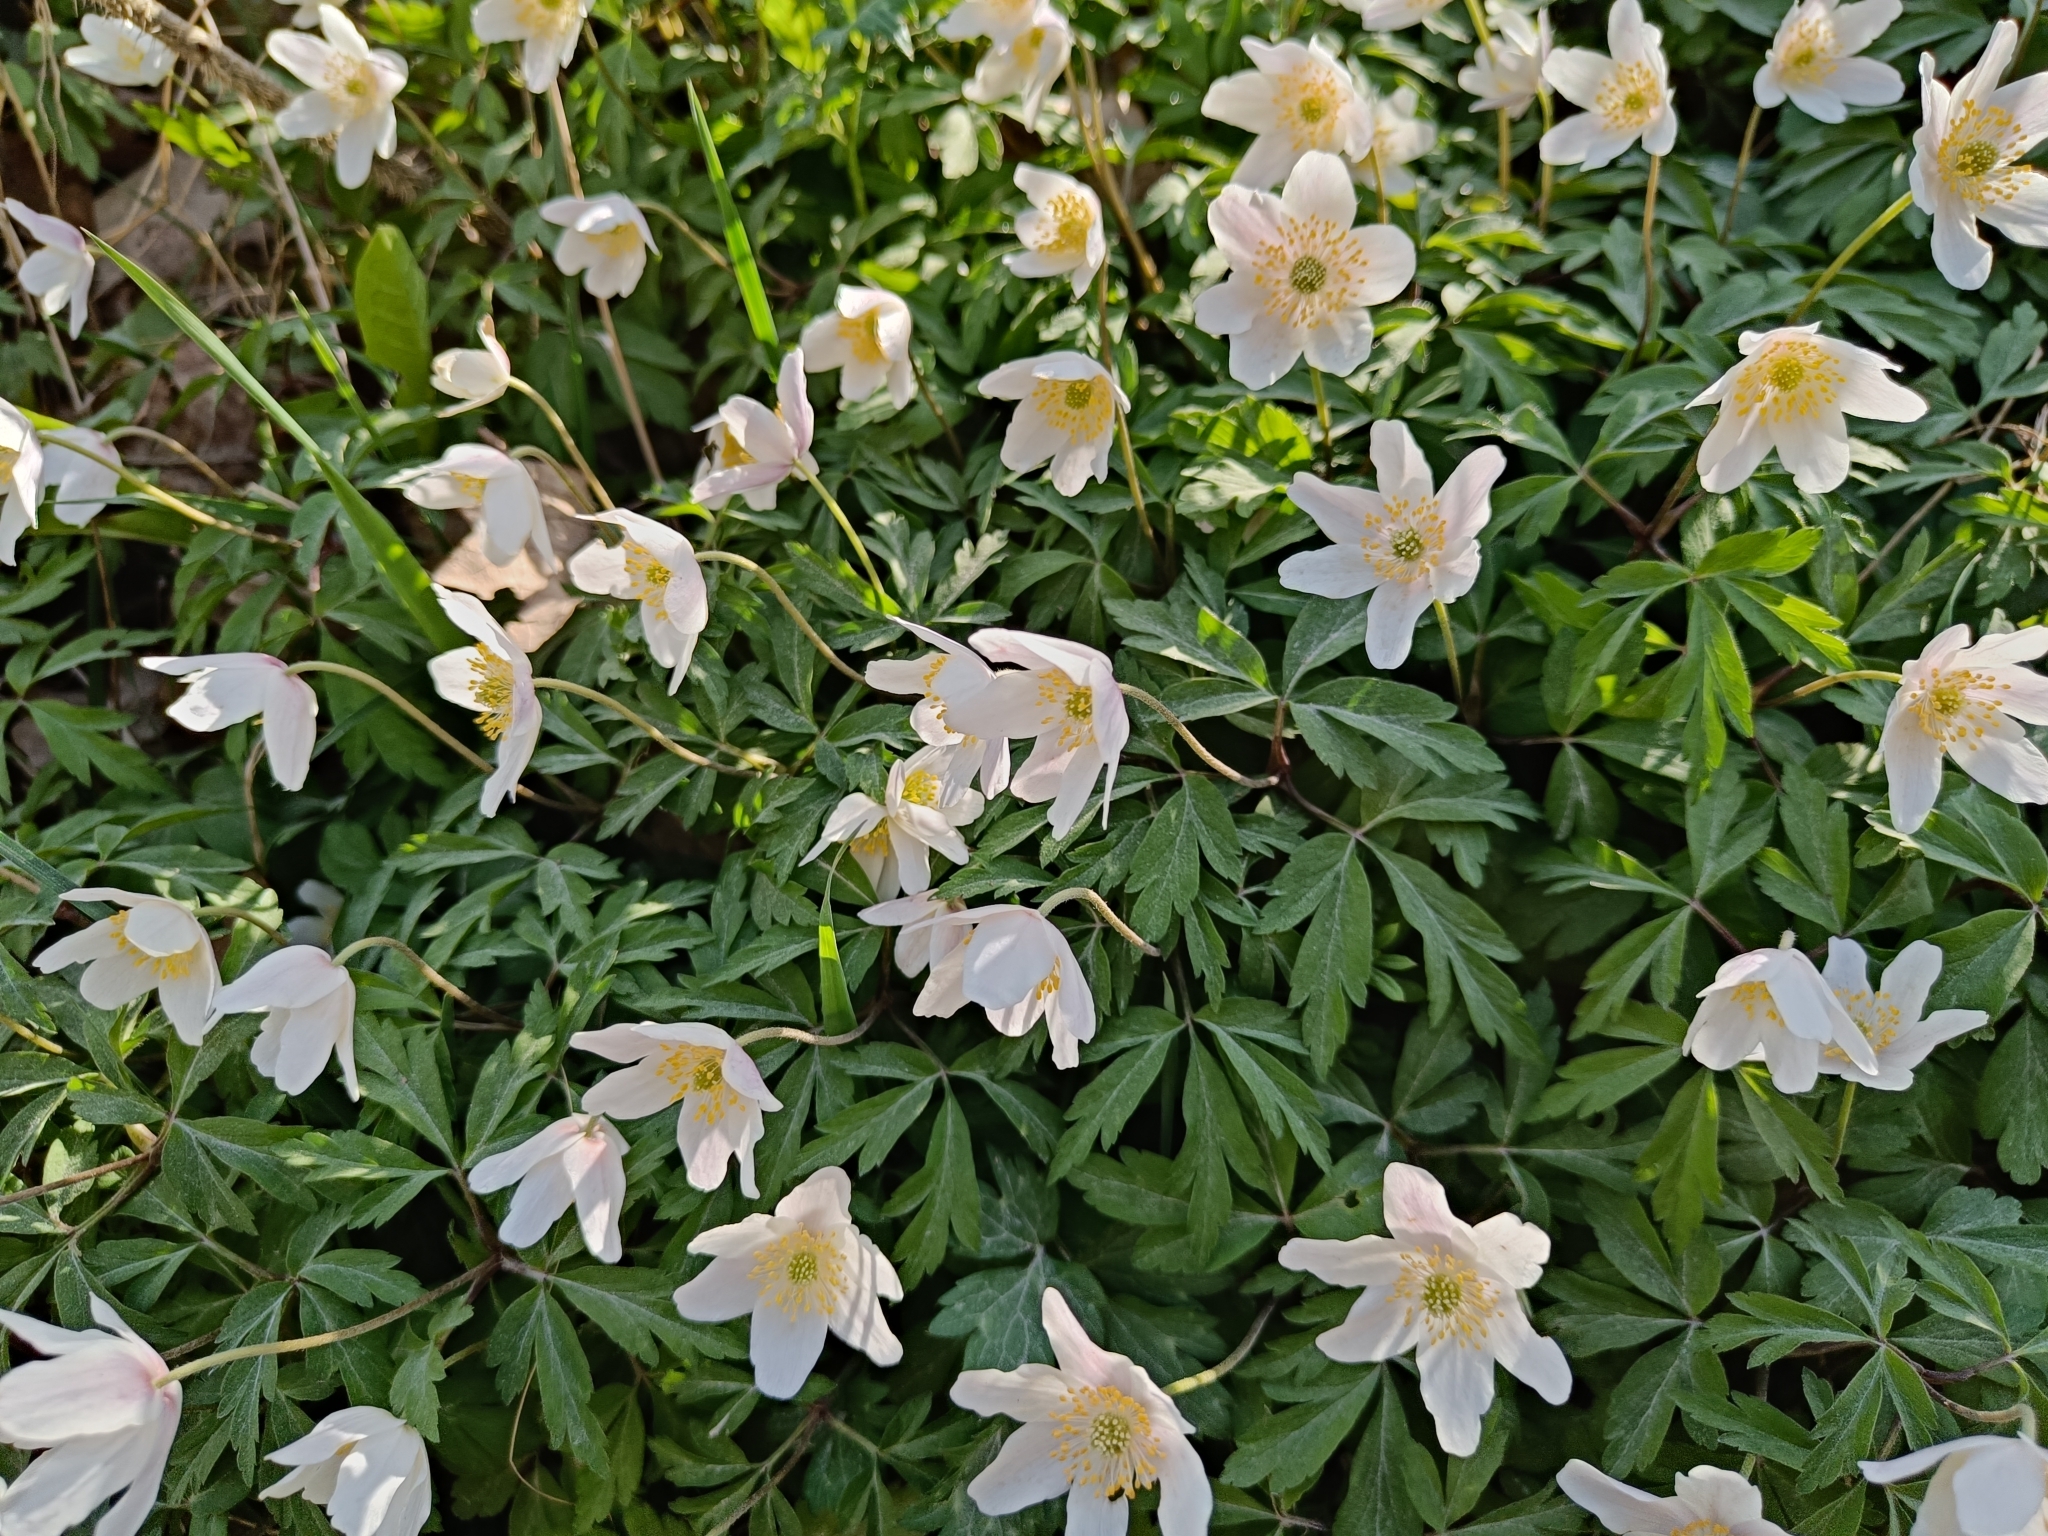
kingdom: Plantae
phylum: Tracheophyta
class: Magnoliopsida
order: Ranunculales
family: Ranunculaceae
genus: Anemone
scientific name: Anemone nemorosa
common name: Wood anemone
